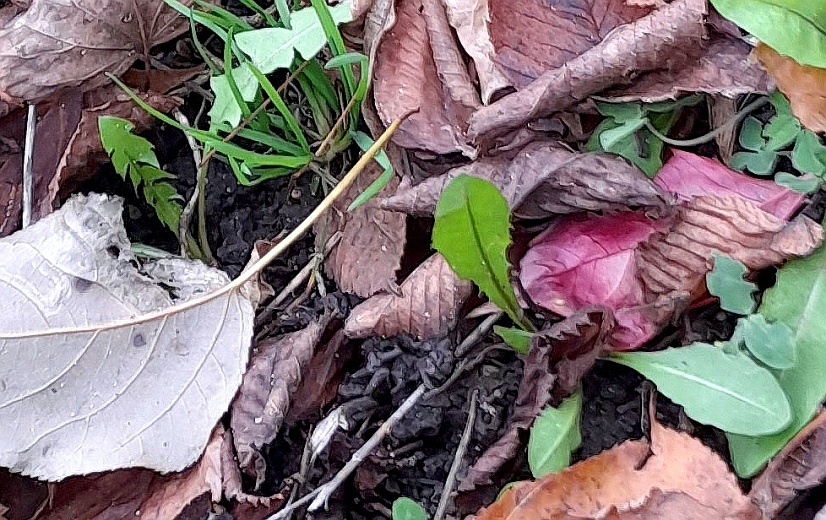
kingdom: Plantae
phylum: Tracheophyta
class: Magnoliopsida
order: Asterales
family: Asteraceae
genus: Taraxacum
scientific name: Taraxacum officinale
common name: Common dandelion
